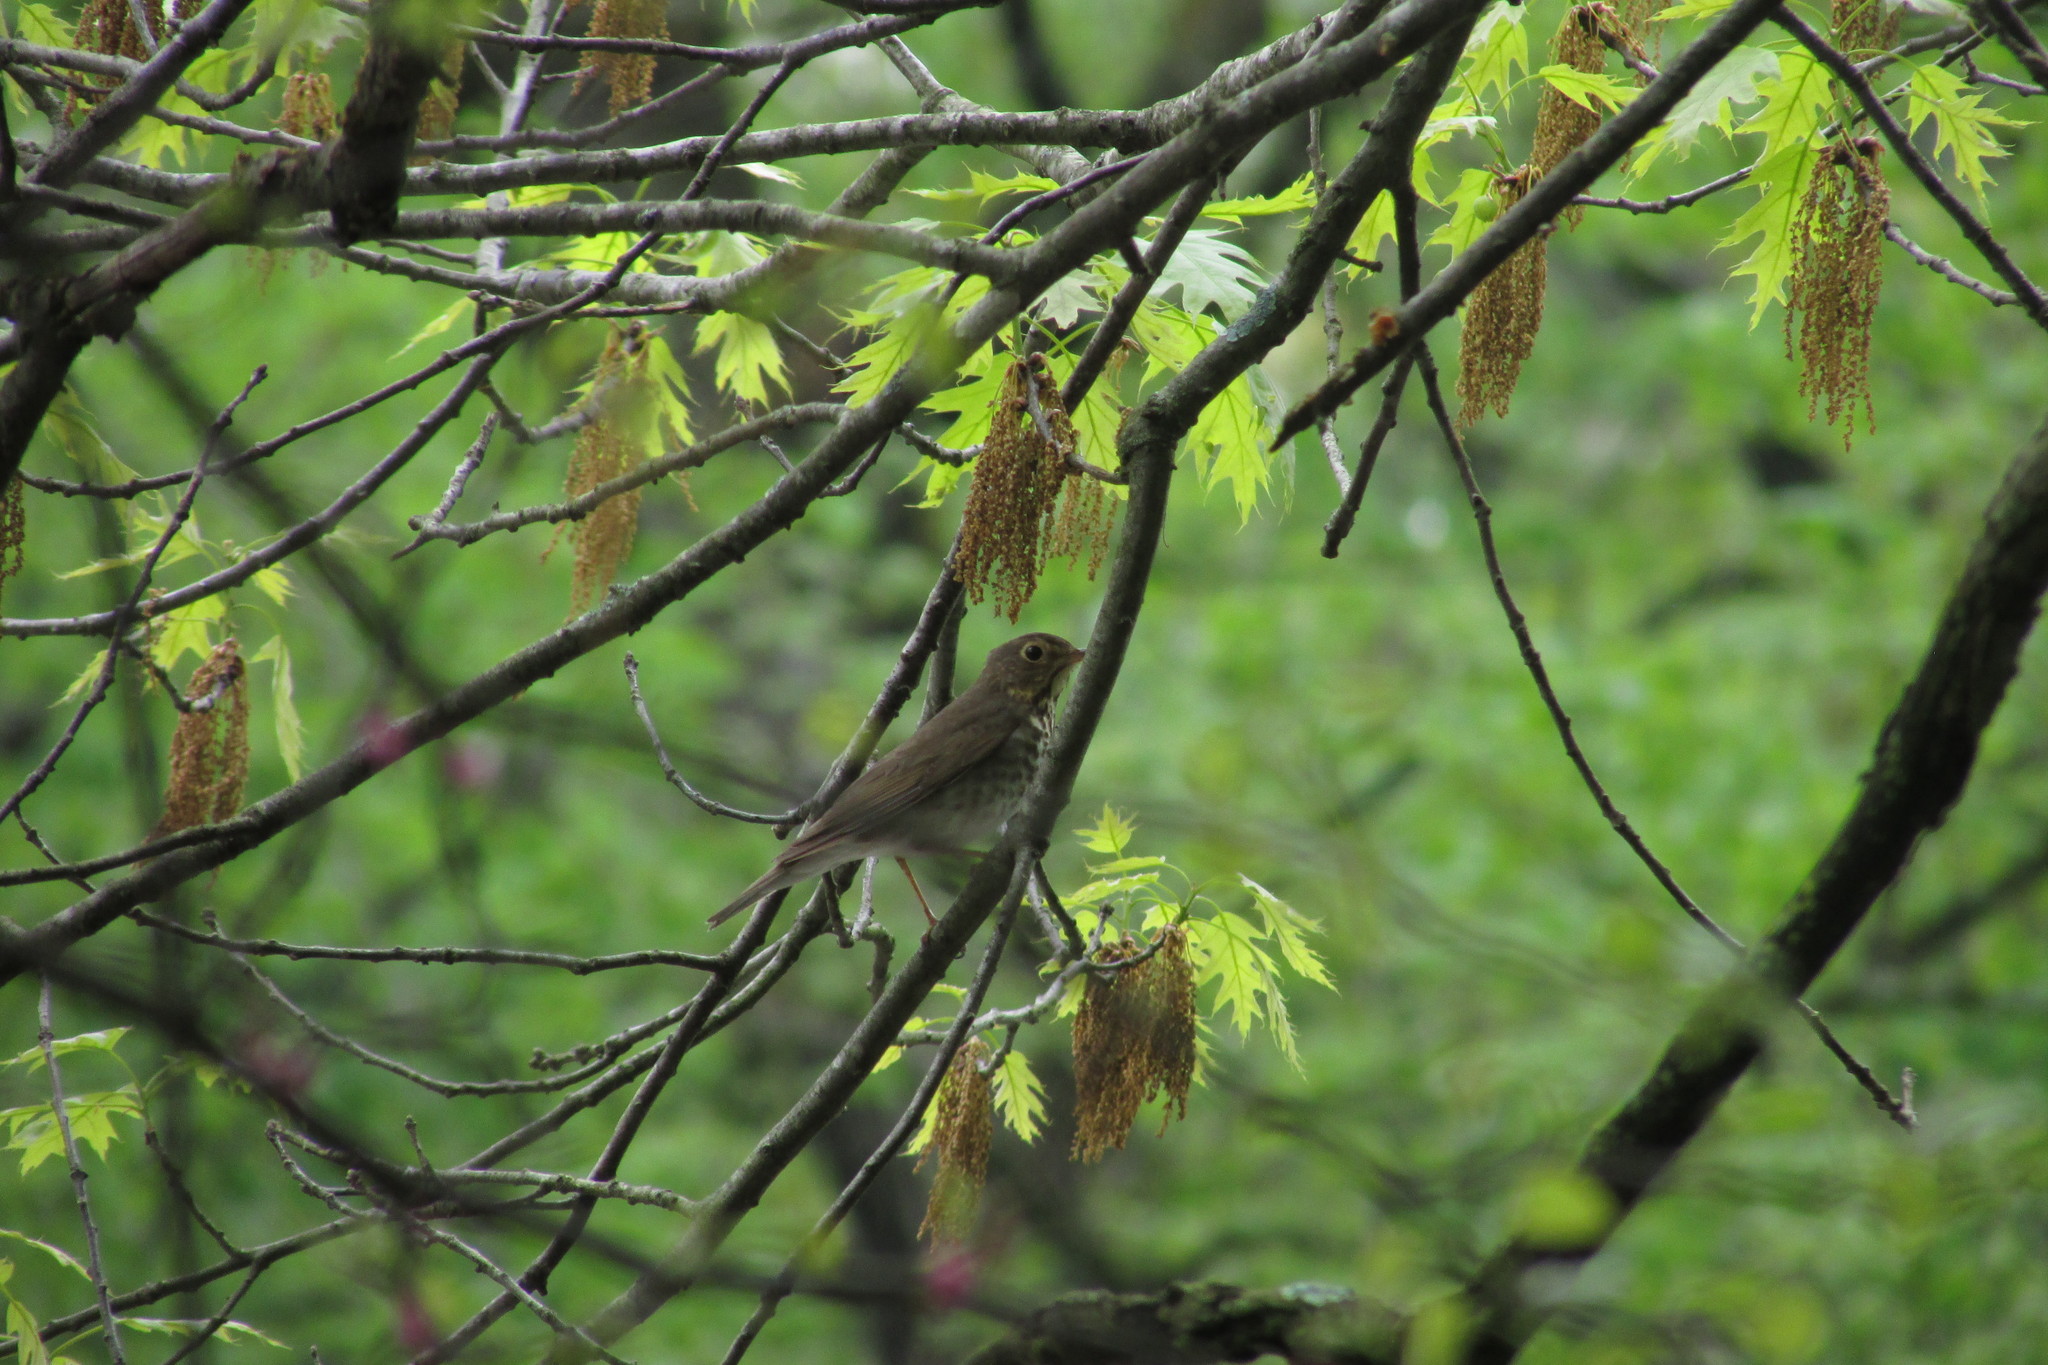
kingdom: Animalia
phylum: Chordata
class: Aves
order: Passeriformes
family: Turdidae
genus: Catharus
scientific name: Catharus ustulatus
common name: Swainson's thrush
